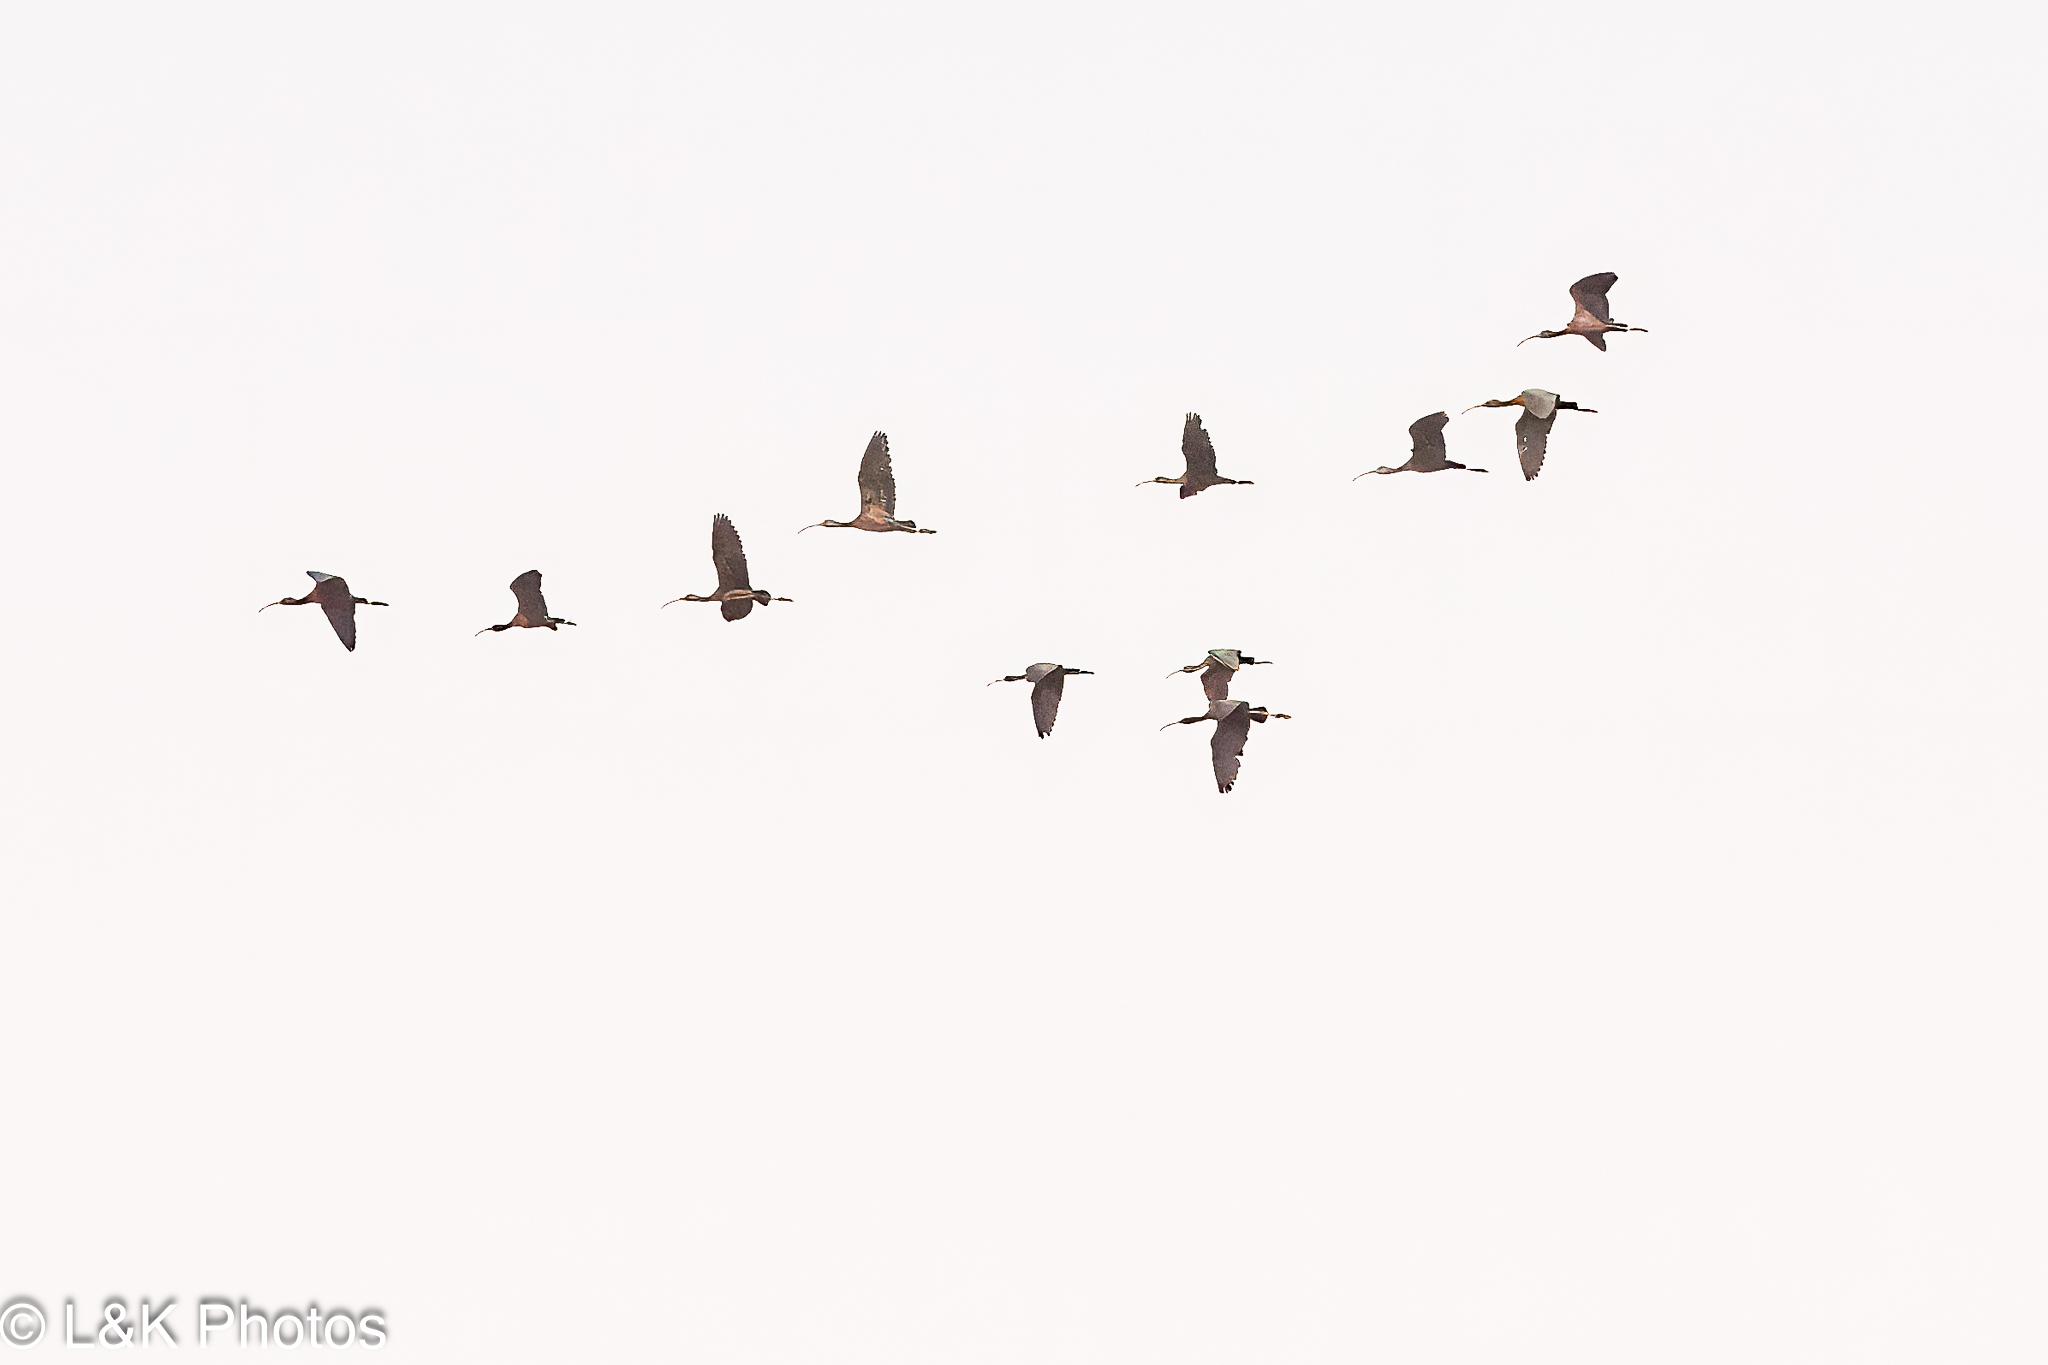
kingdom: Animalia
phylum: Chordata
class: Aves
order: Pelecaniformes
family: Threskiornithidae
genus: Plegadis
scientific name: Plegadis falcinellus
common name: Glossy ibis
